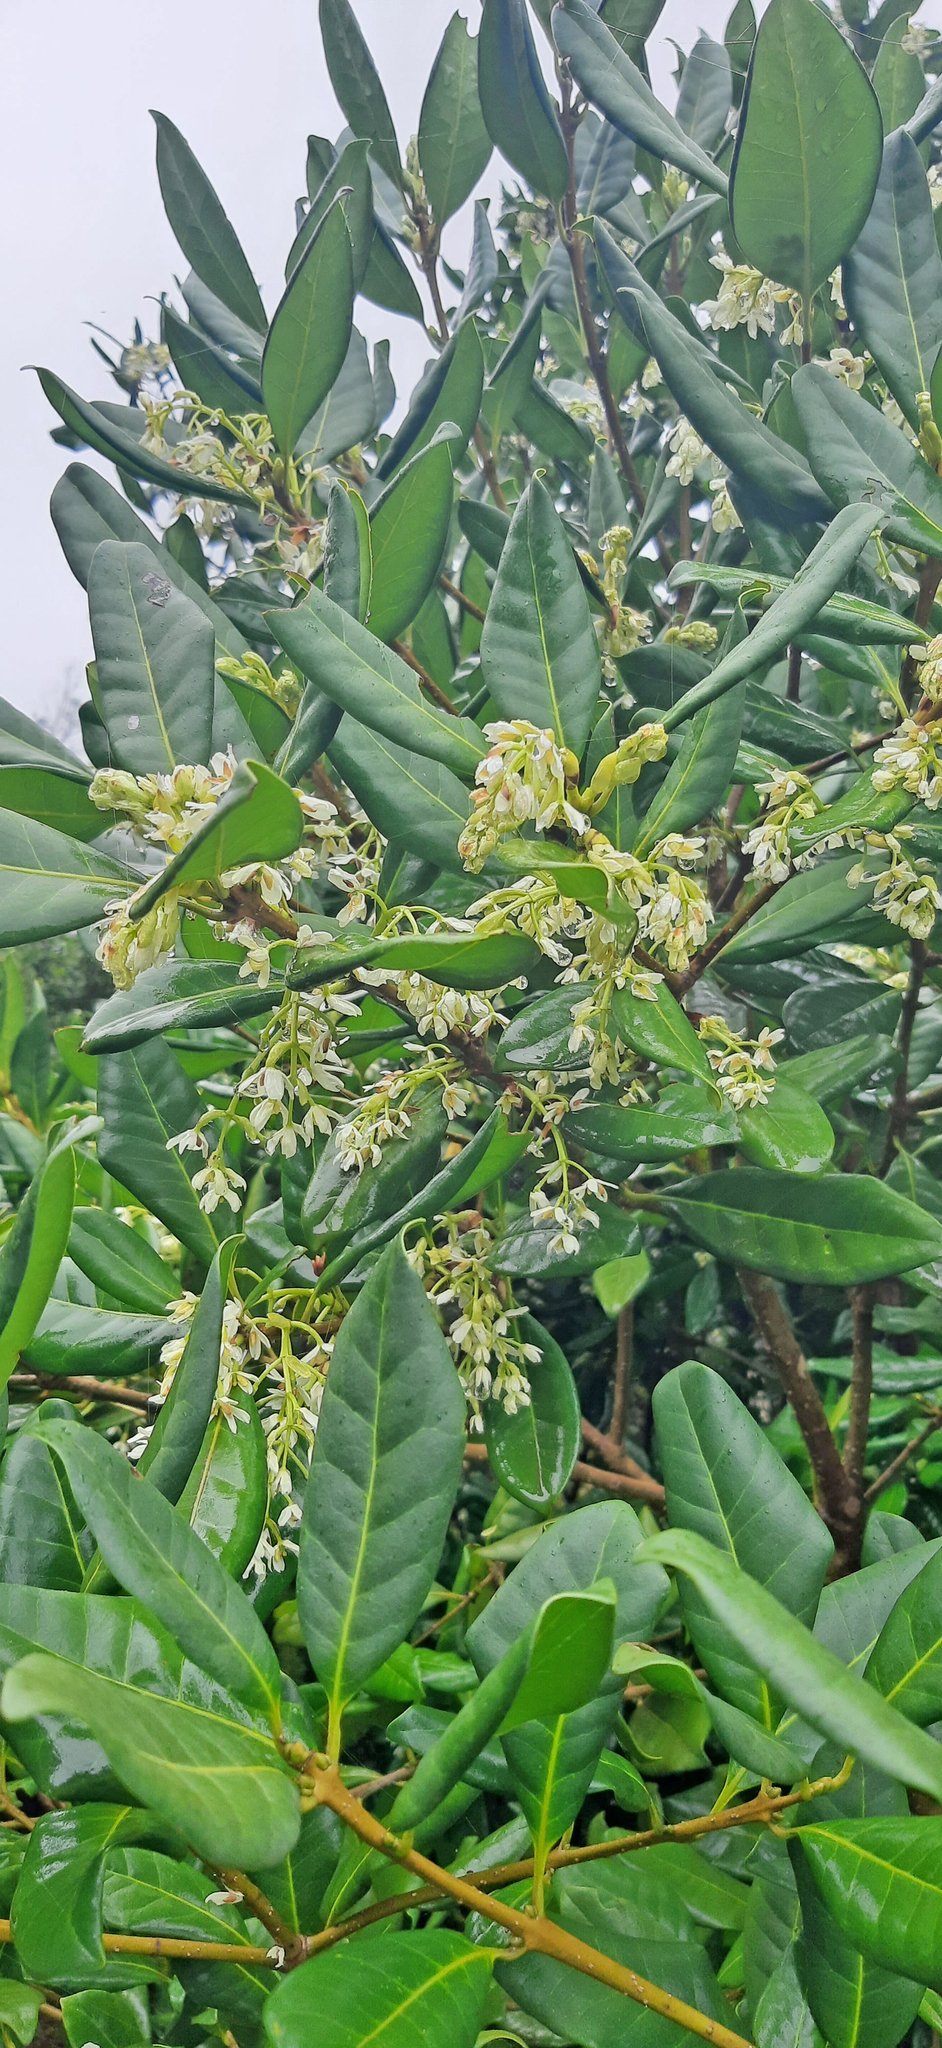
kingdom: Plantae
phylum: Tracheophyta
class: Magnoliopsida
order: Lamiales
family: Oleaceae
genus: Picconia
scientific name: Picconia excelsa
